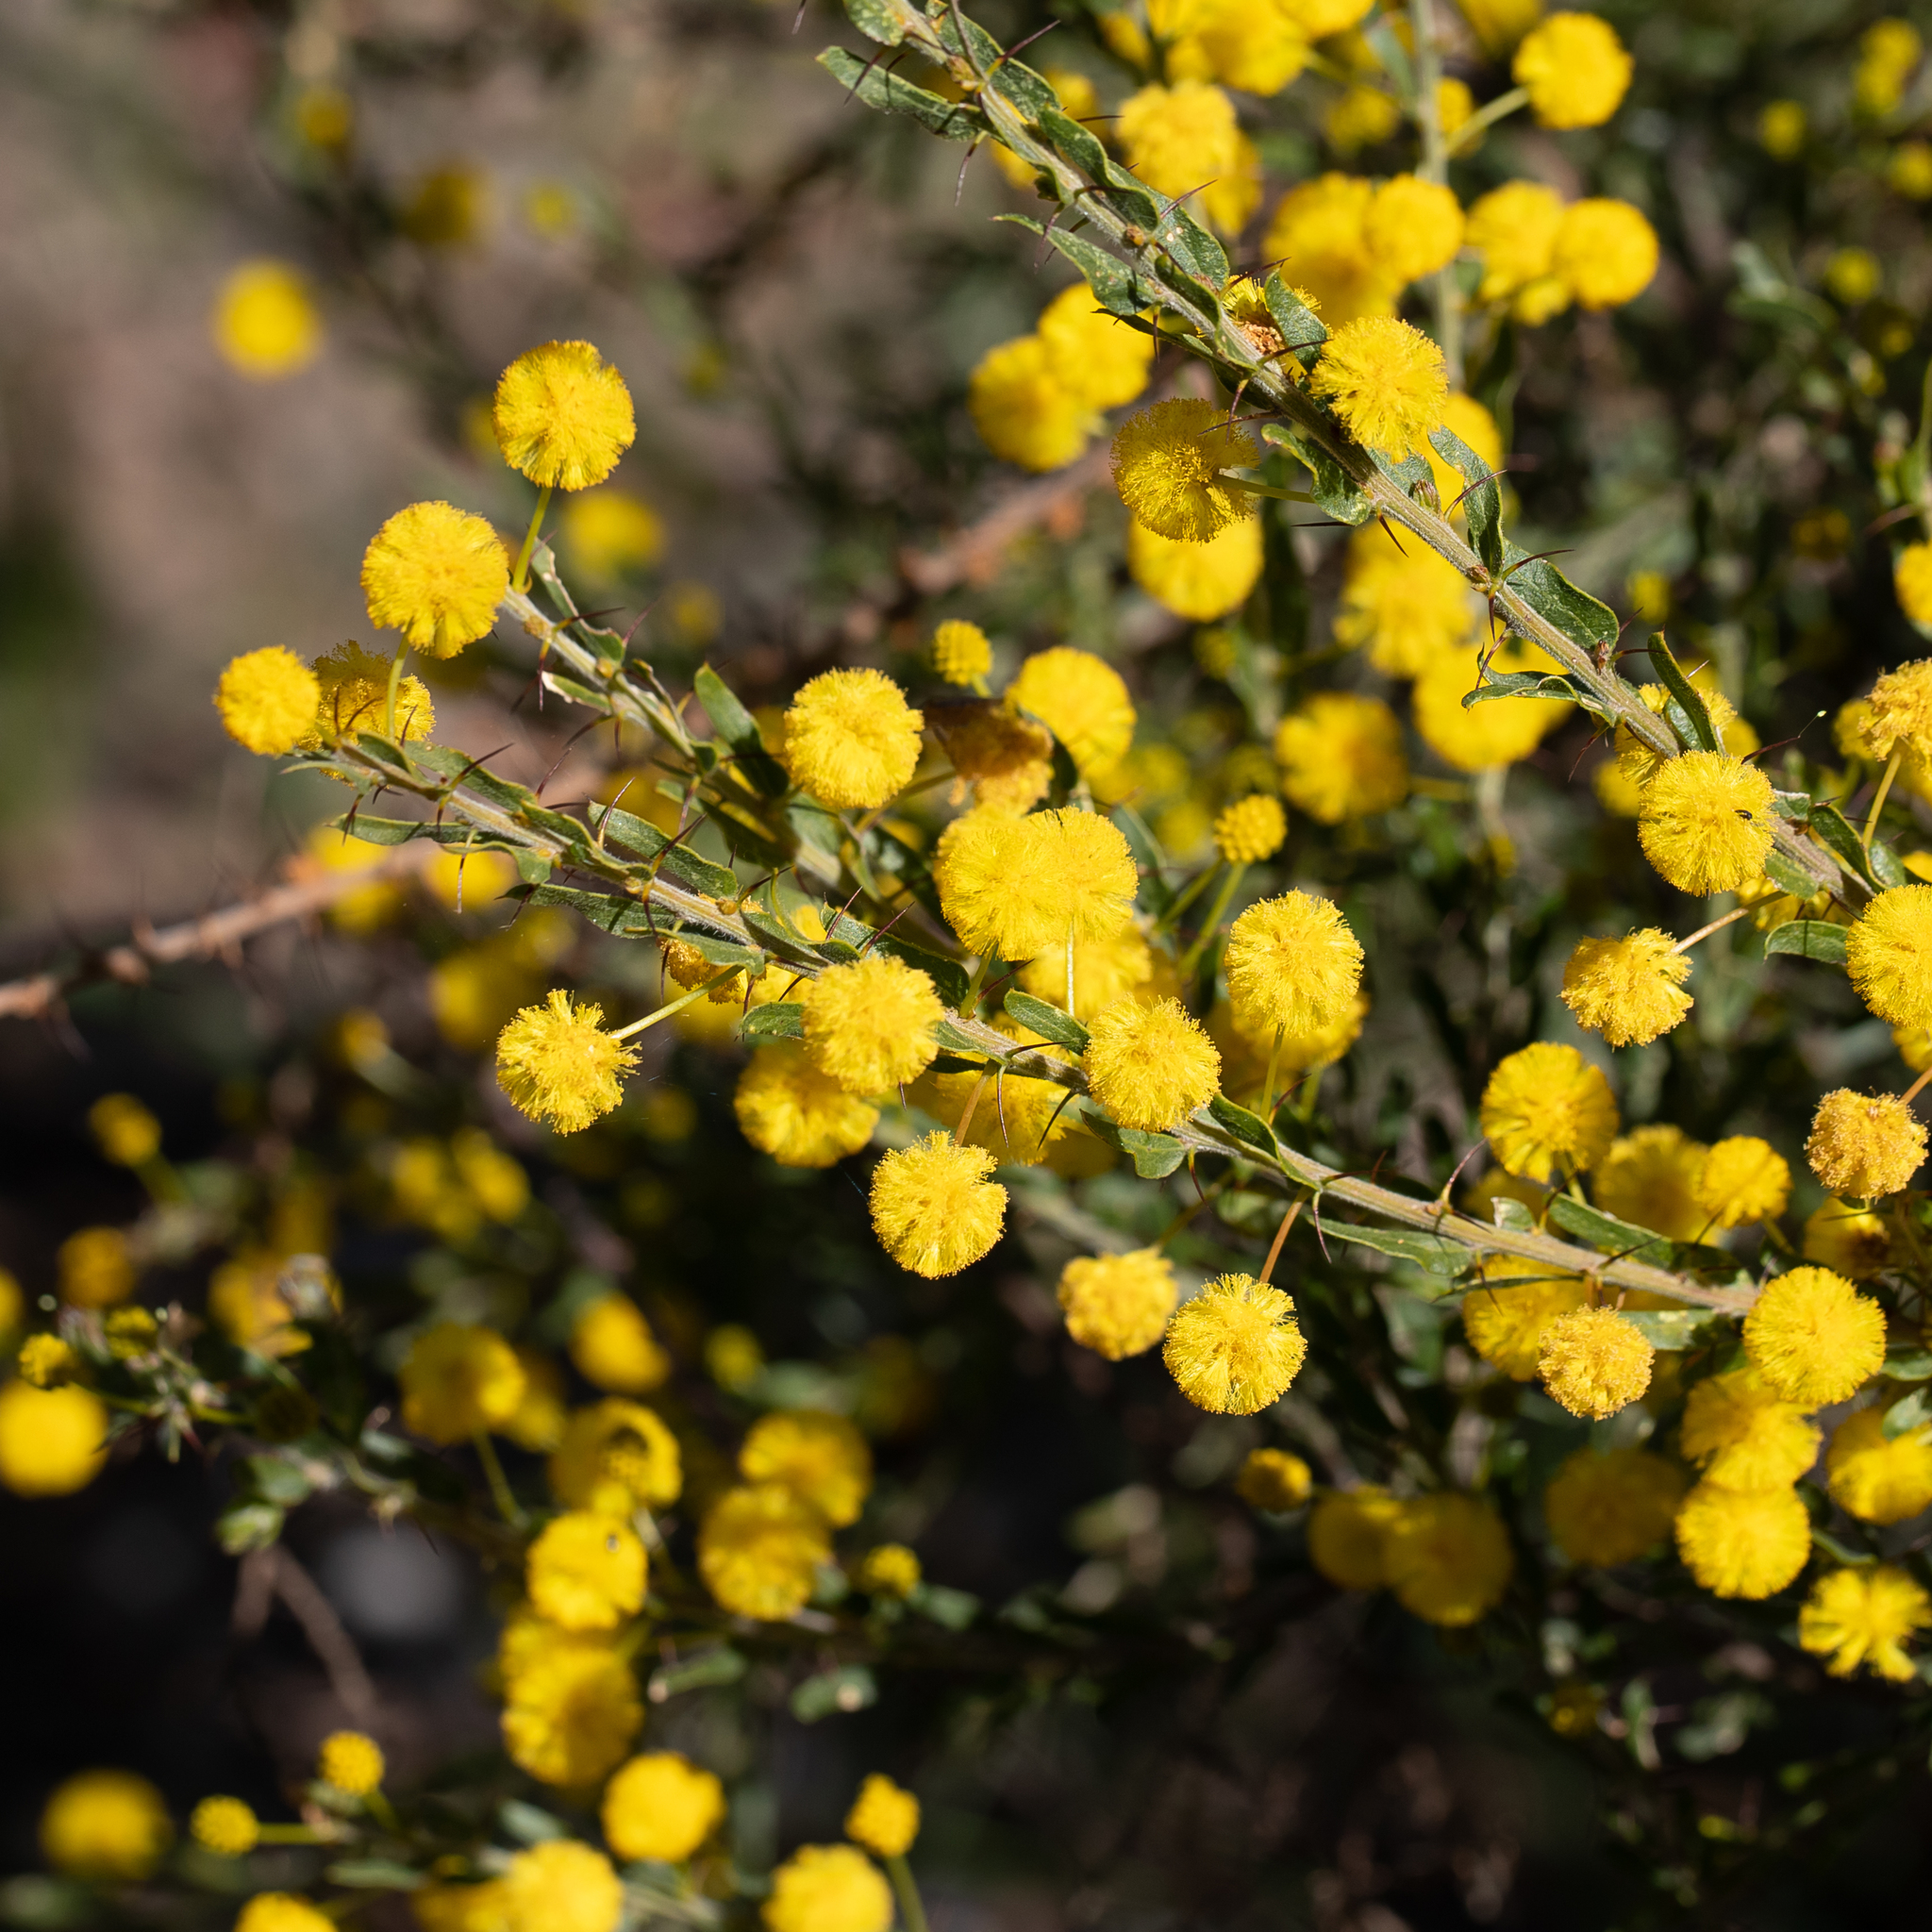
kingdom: Plantae
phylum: Tracheophyta
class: Magnoliopsida
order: Fabales
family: Fabaceae
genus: Acacia
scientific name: Acacia paradoxa
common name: Paradox acacia
